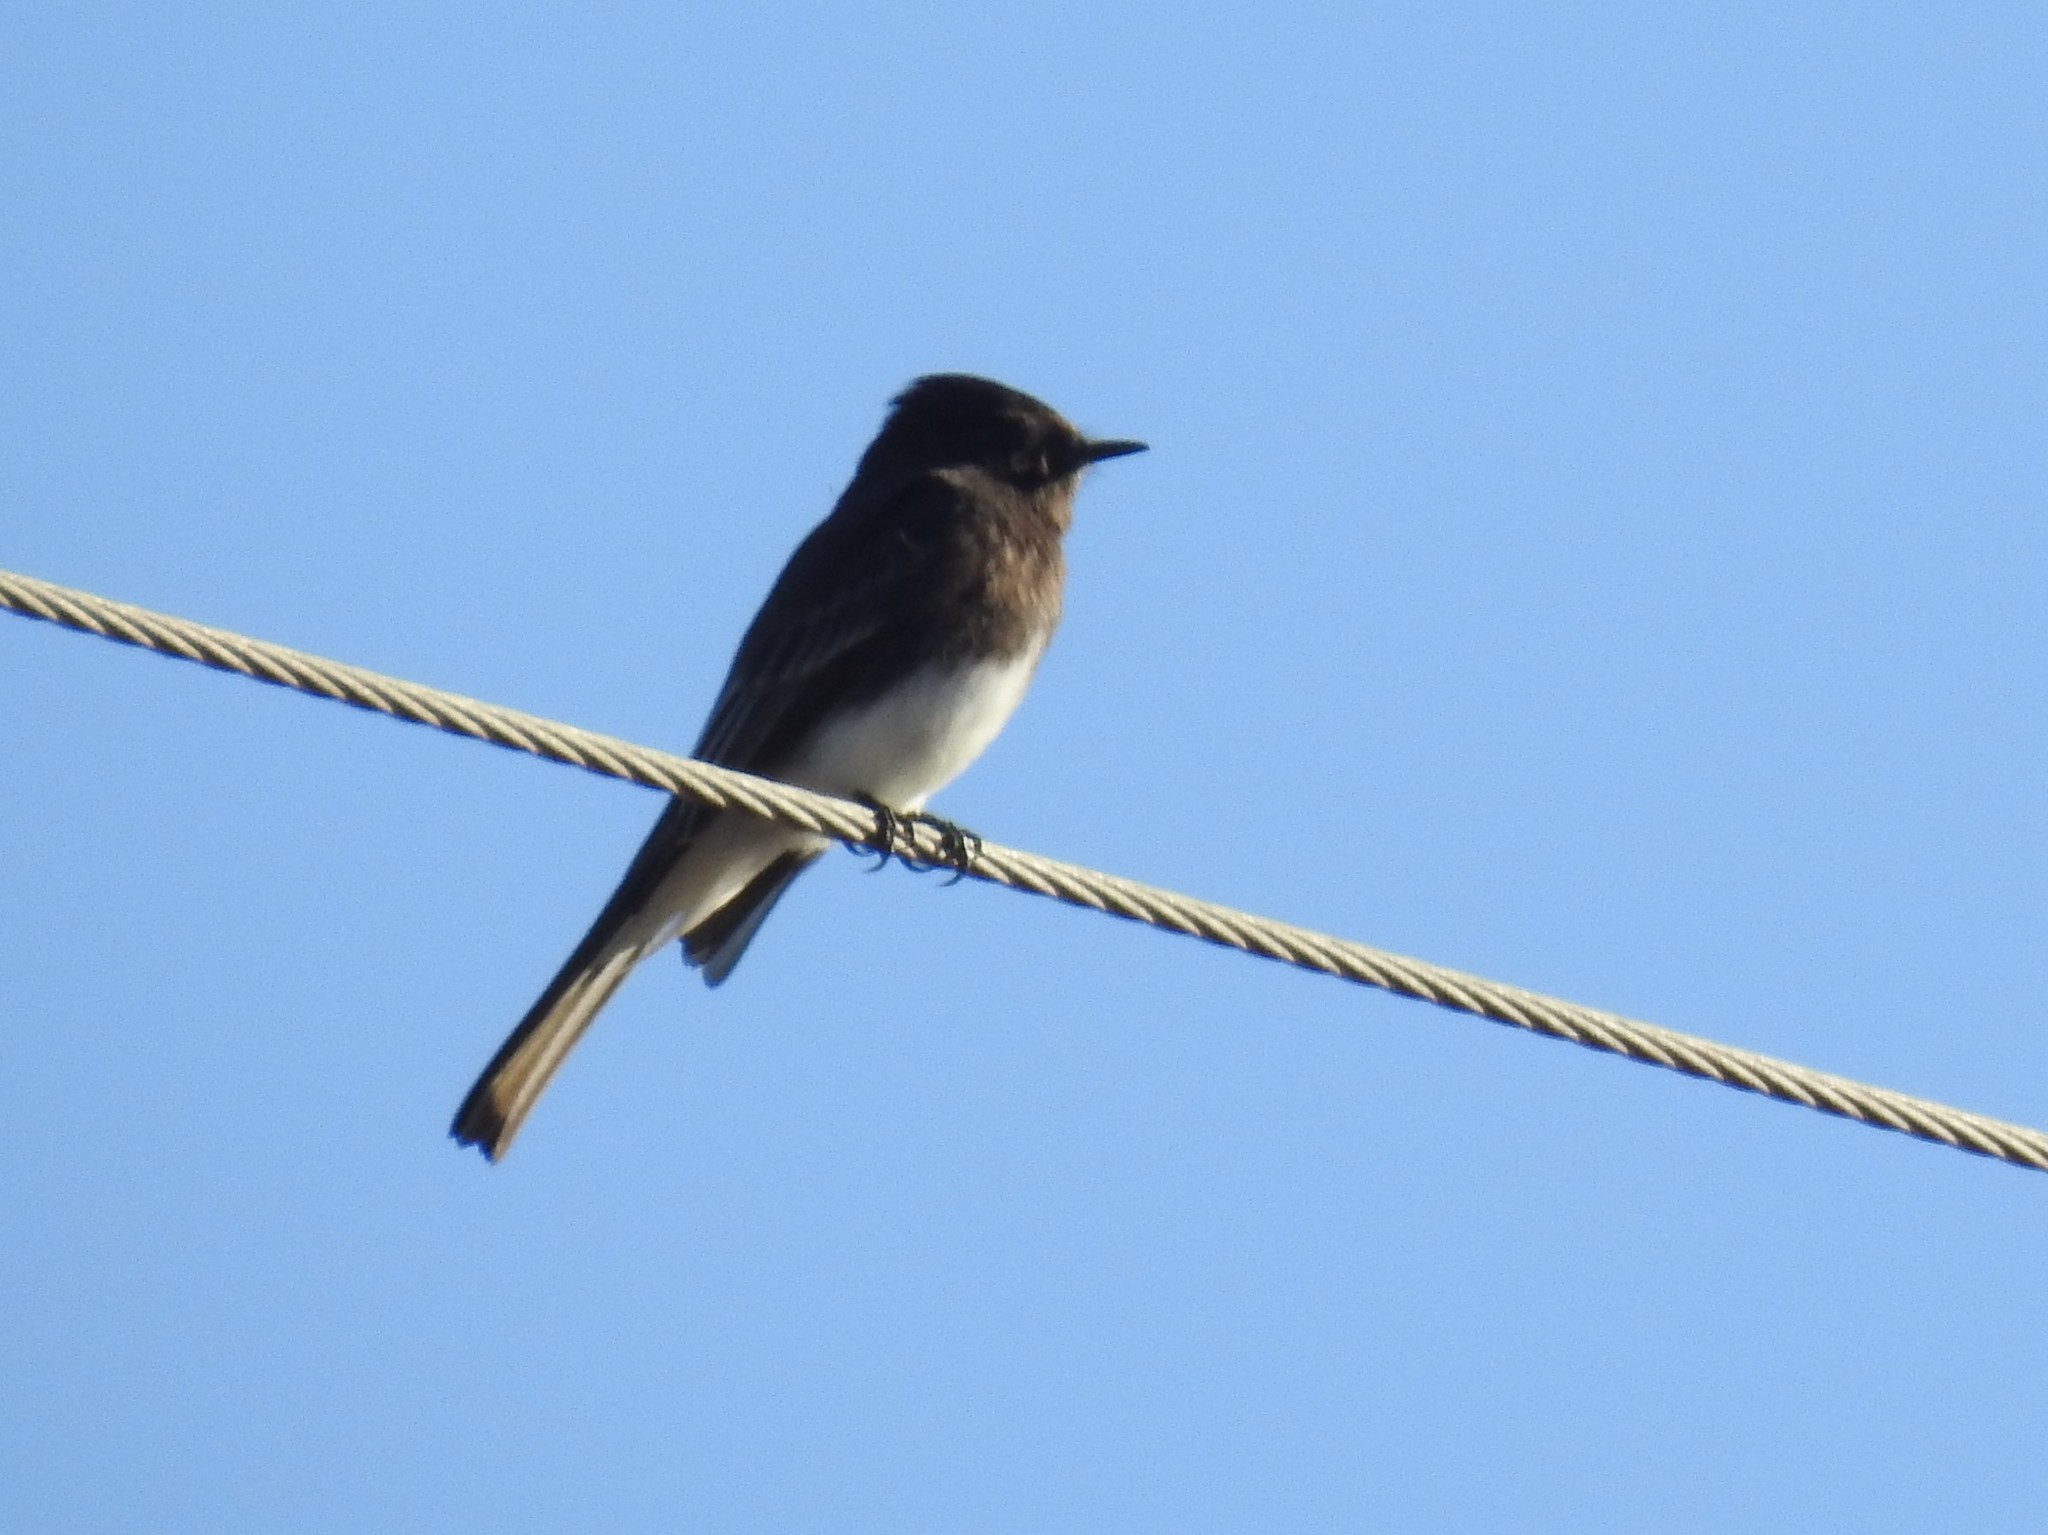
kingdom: Animalia
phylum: Chordata
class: Aves
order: Passeriformes
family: Tyrannidae
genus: Sayornis
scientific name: Sayornis nigricans
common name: Black phoebe
